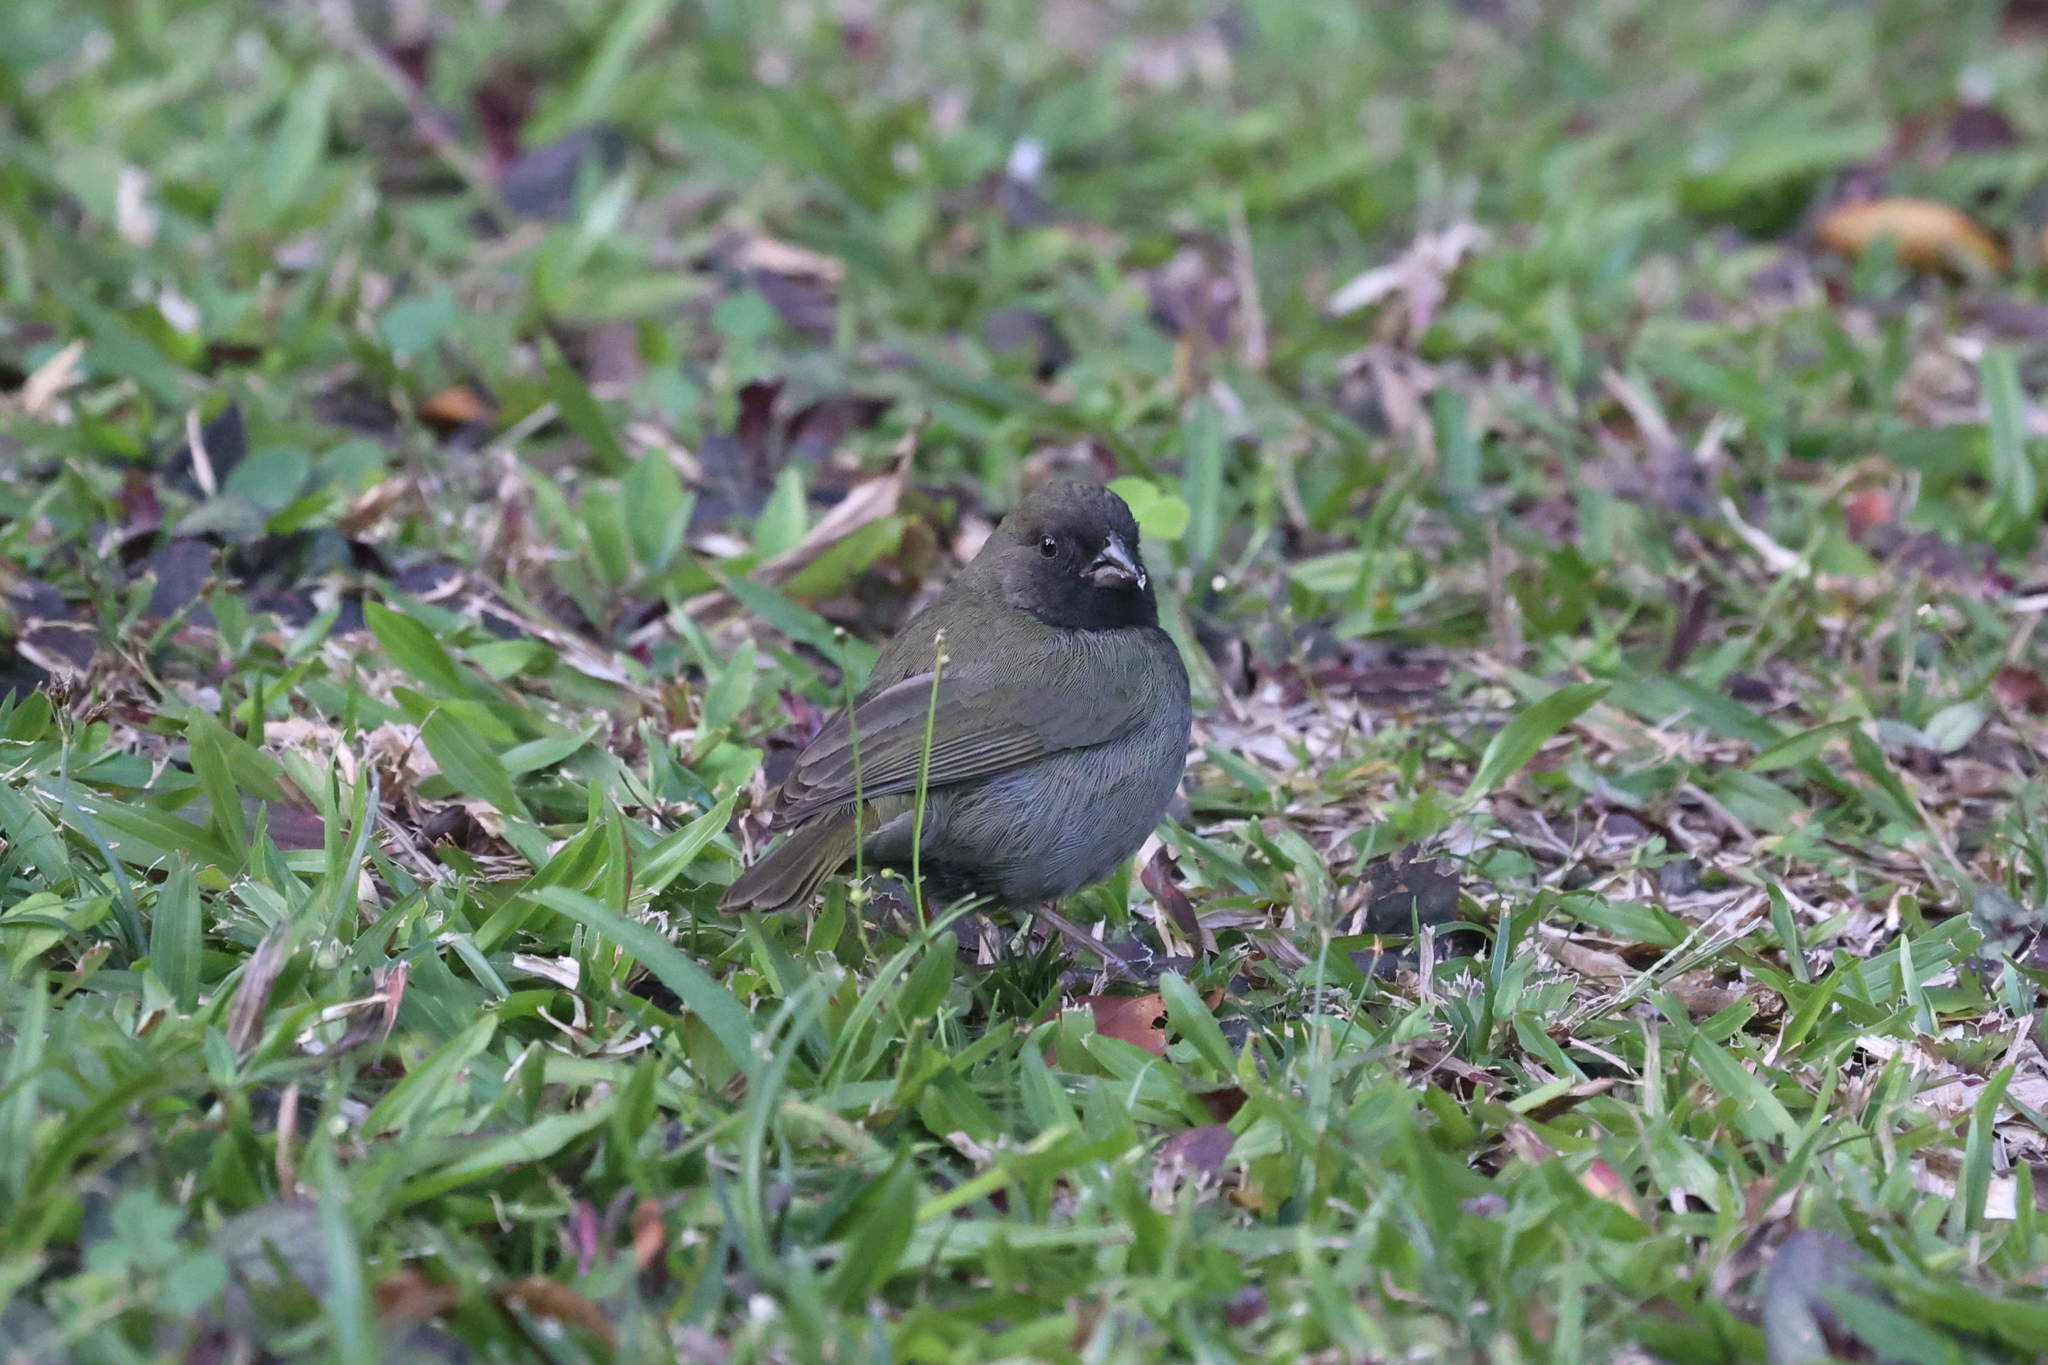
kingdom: Animalia
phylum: Chordata
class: Aves
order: Passeriformes
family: Thraupidae
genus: Melanospiza
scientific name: Melanospiza bicolor
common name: Black-faced grassquit
